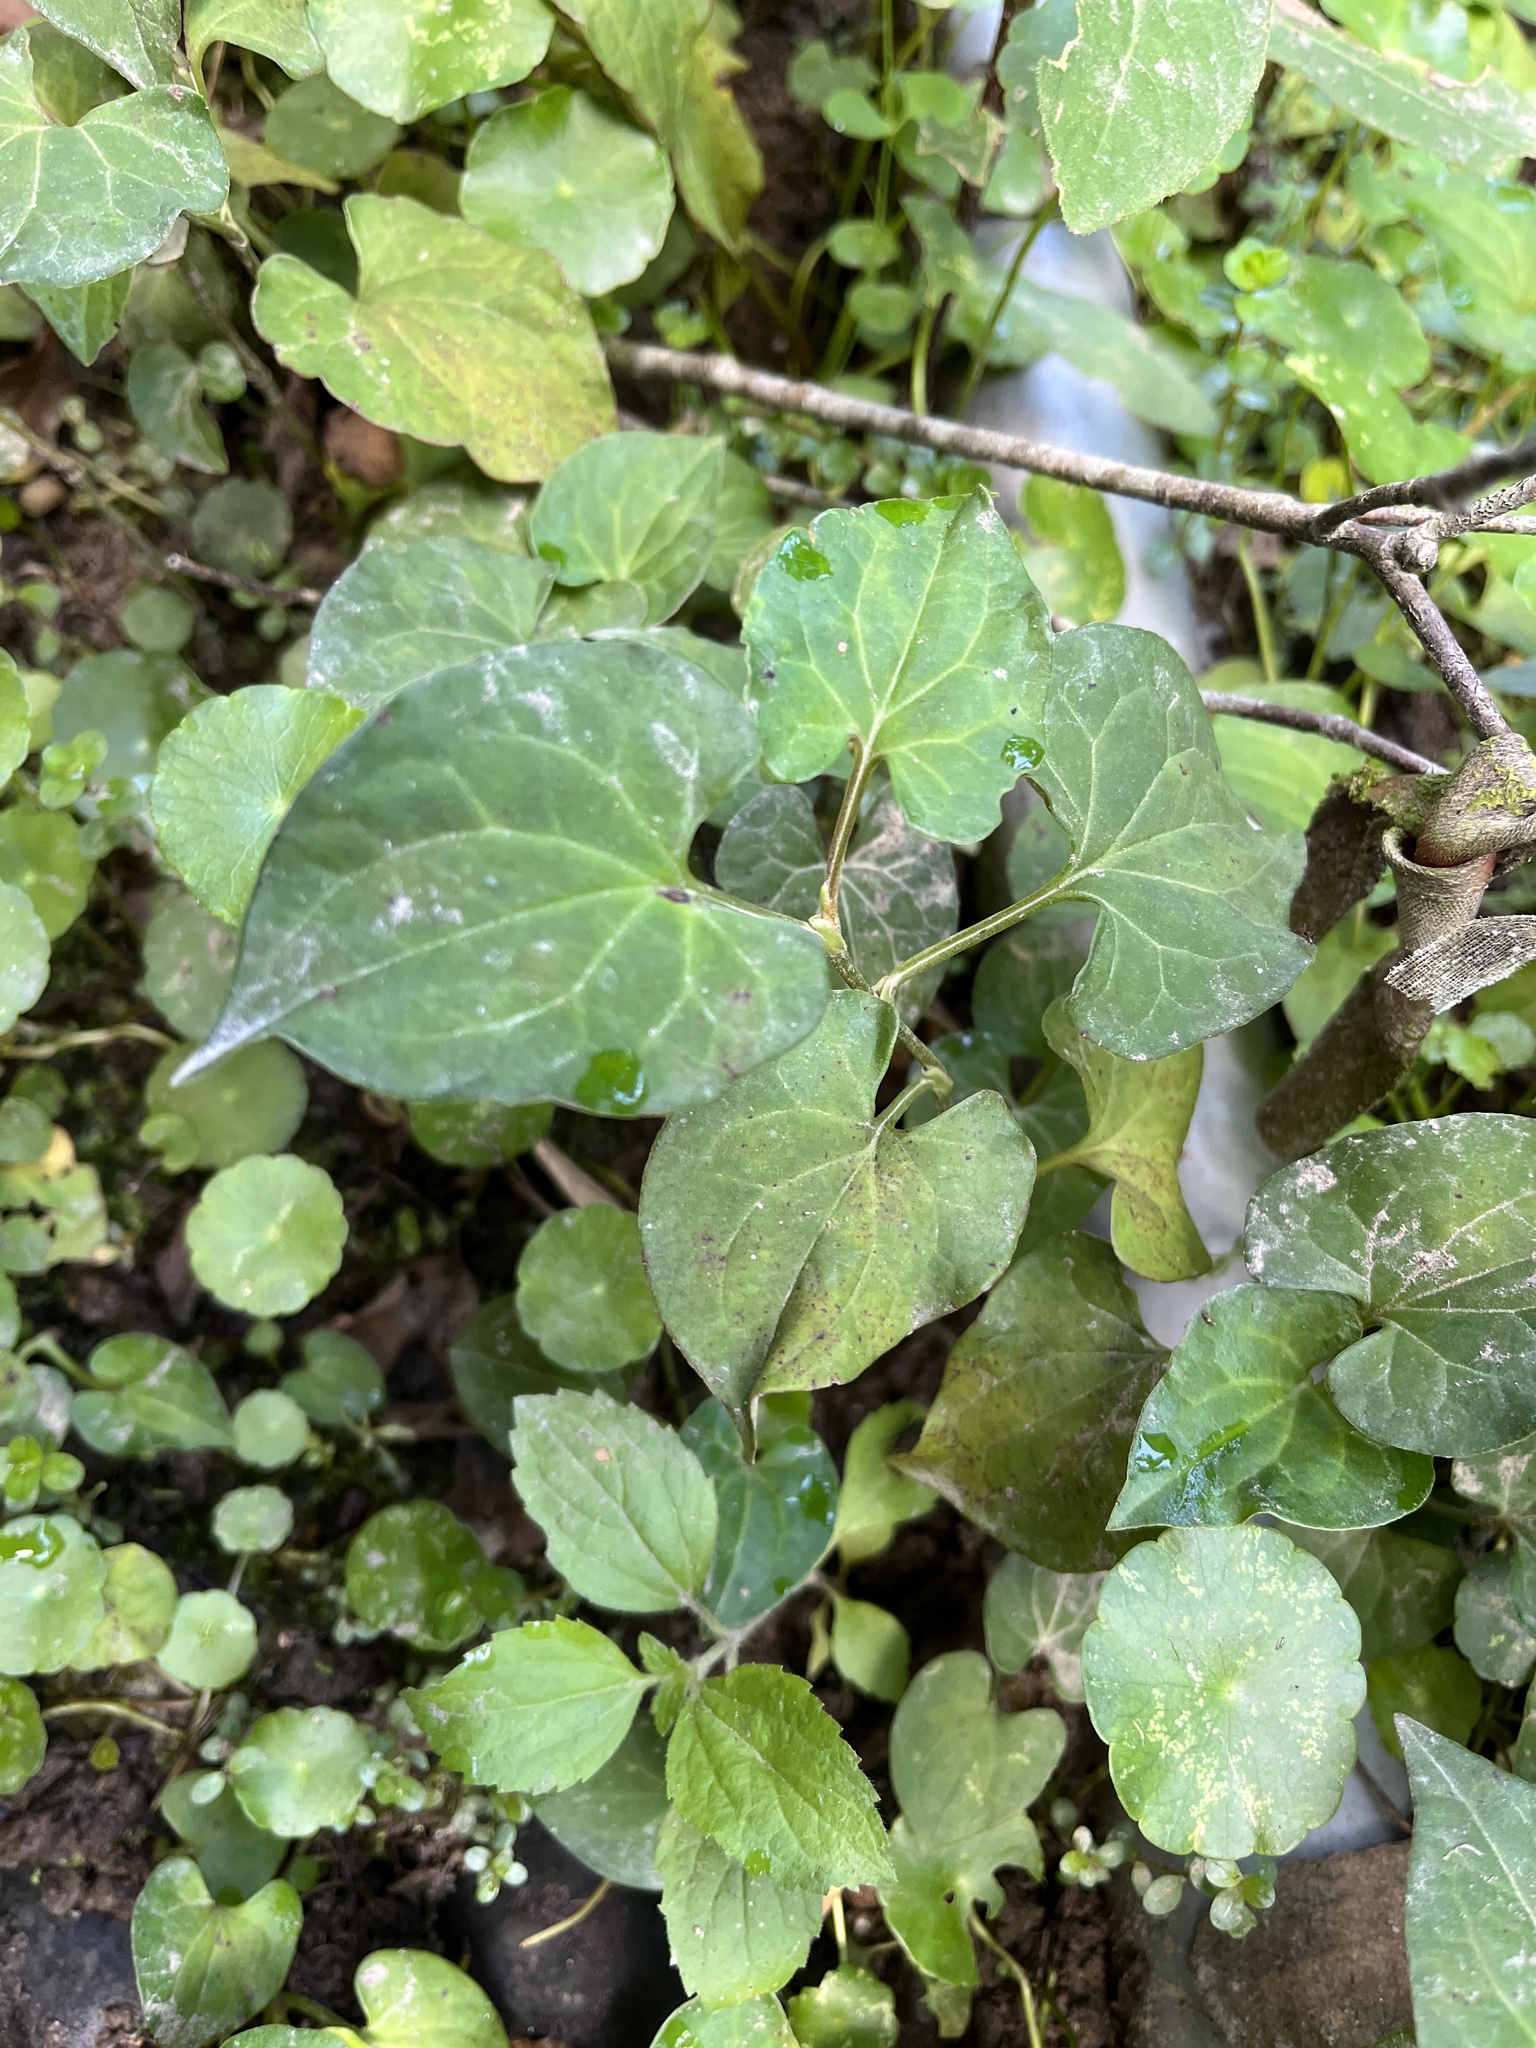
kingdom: Plantae
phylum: Tracheophyta
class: Magnoliopsida
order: Piperales
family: Saururaceae
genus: Houttuynia
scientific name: Houttuynia cordata
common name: Chameleon
